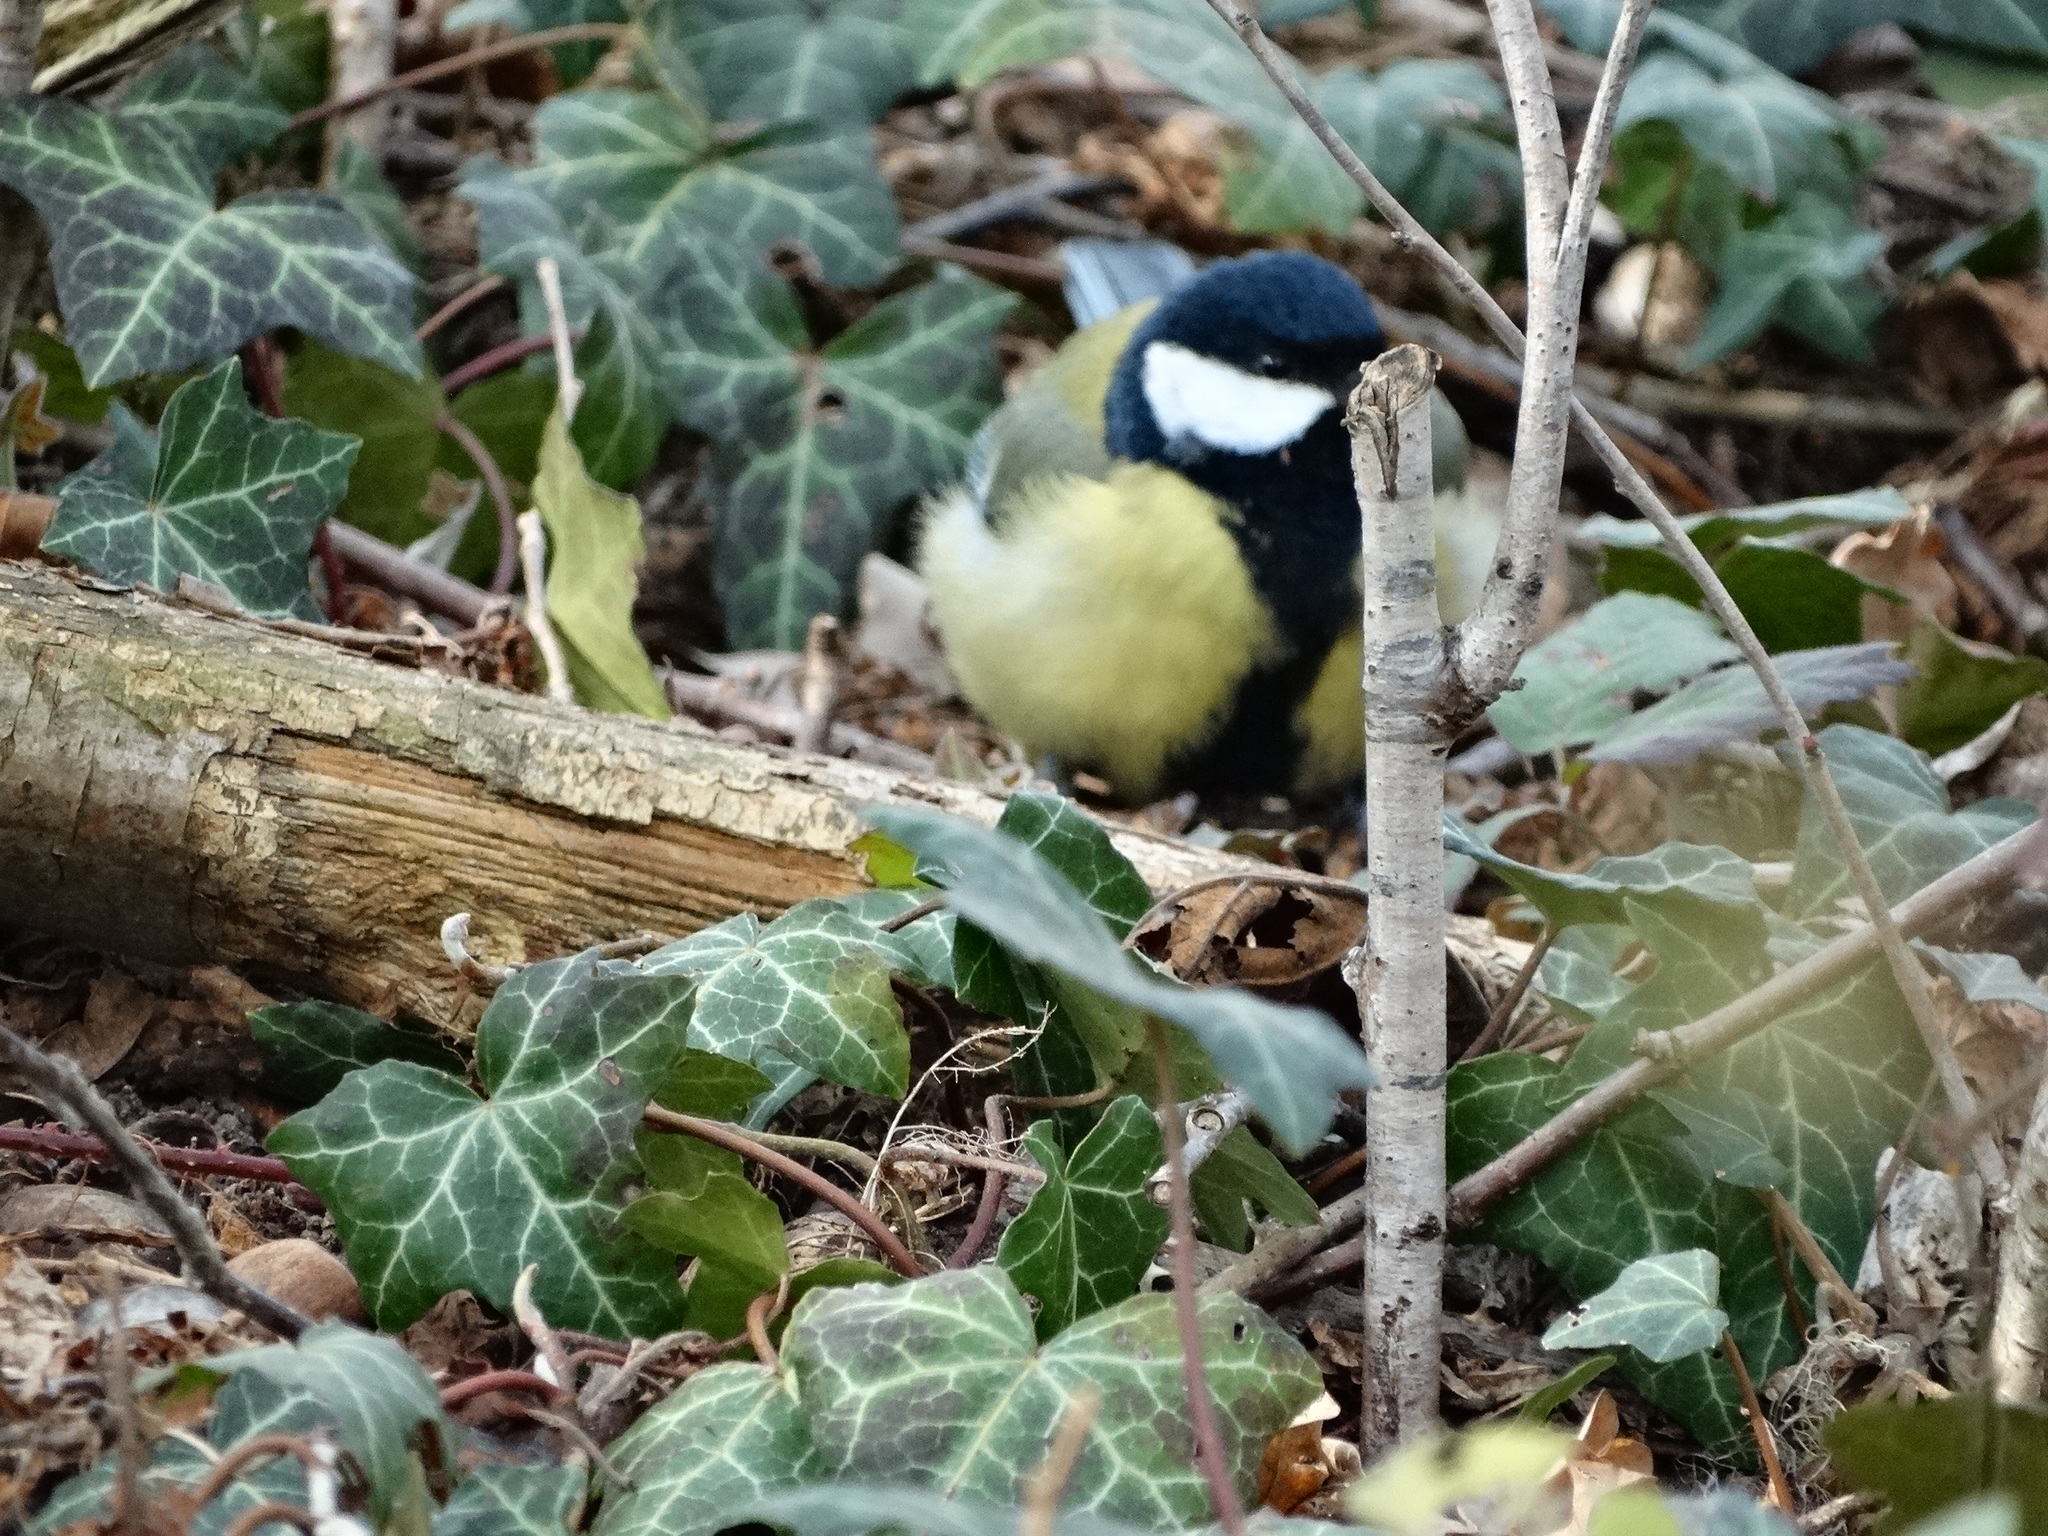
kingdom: Animalia
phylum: Chordata
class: Aves
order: Passeriformes
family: Paridae
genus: Parus
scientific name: Parus major
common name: Great tit
